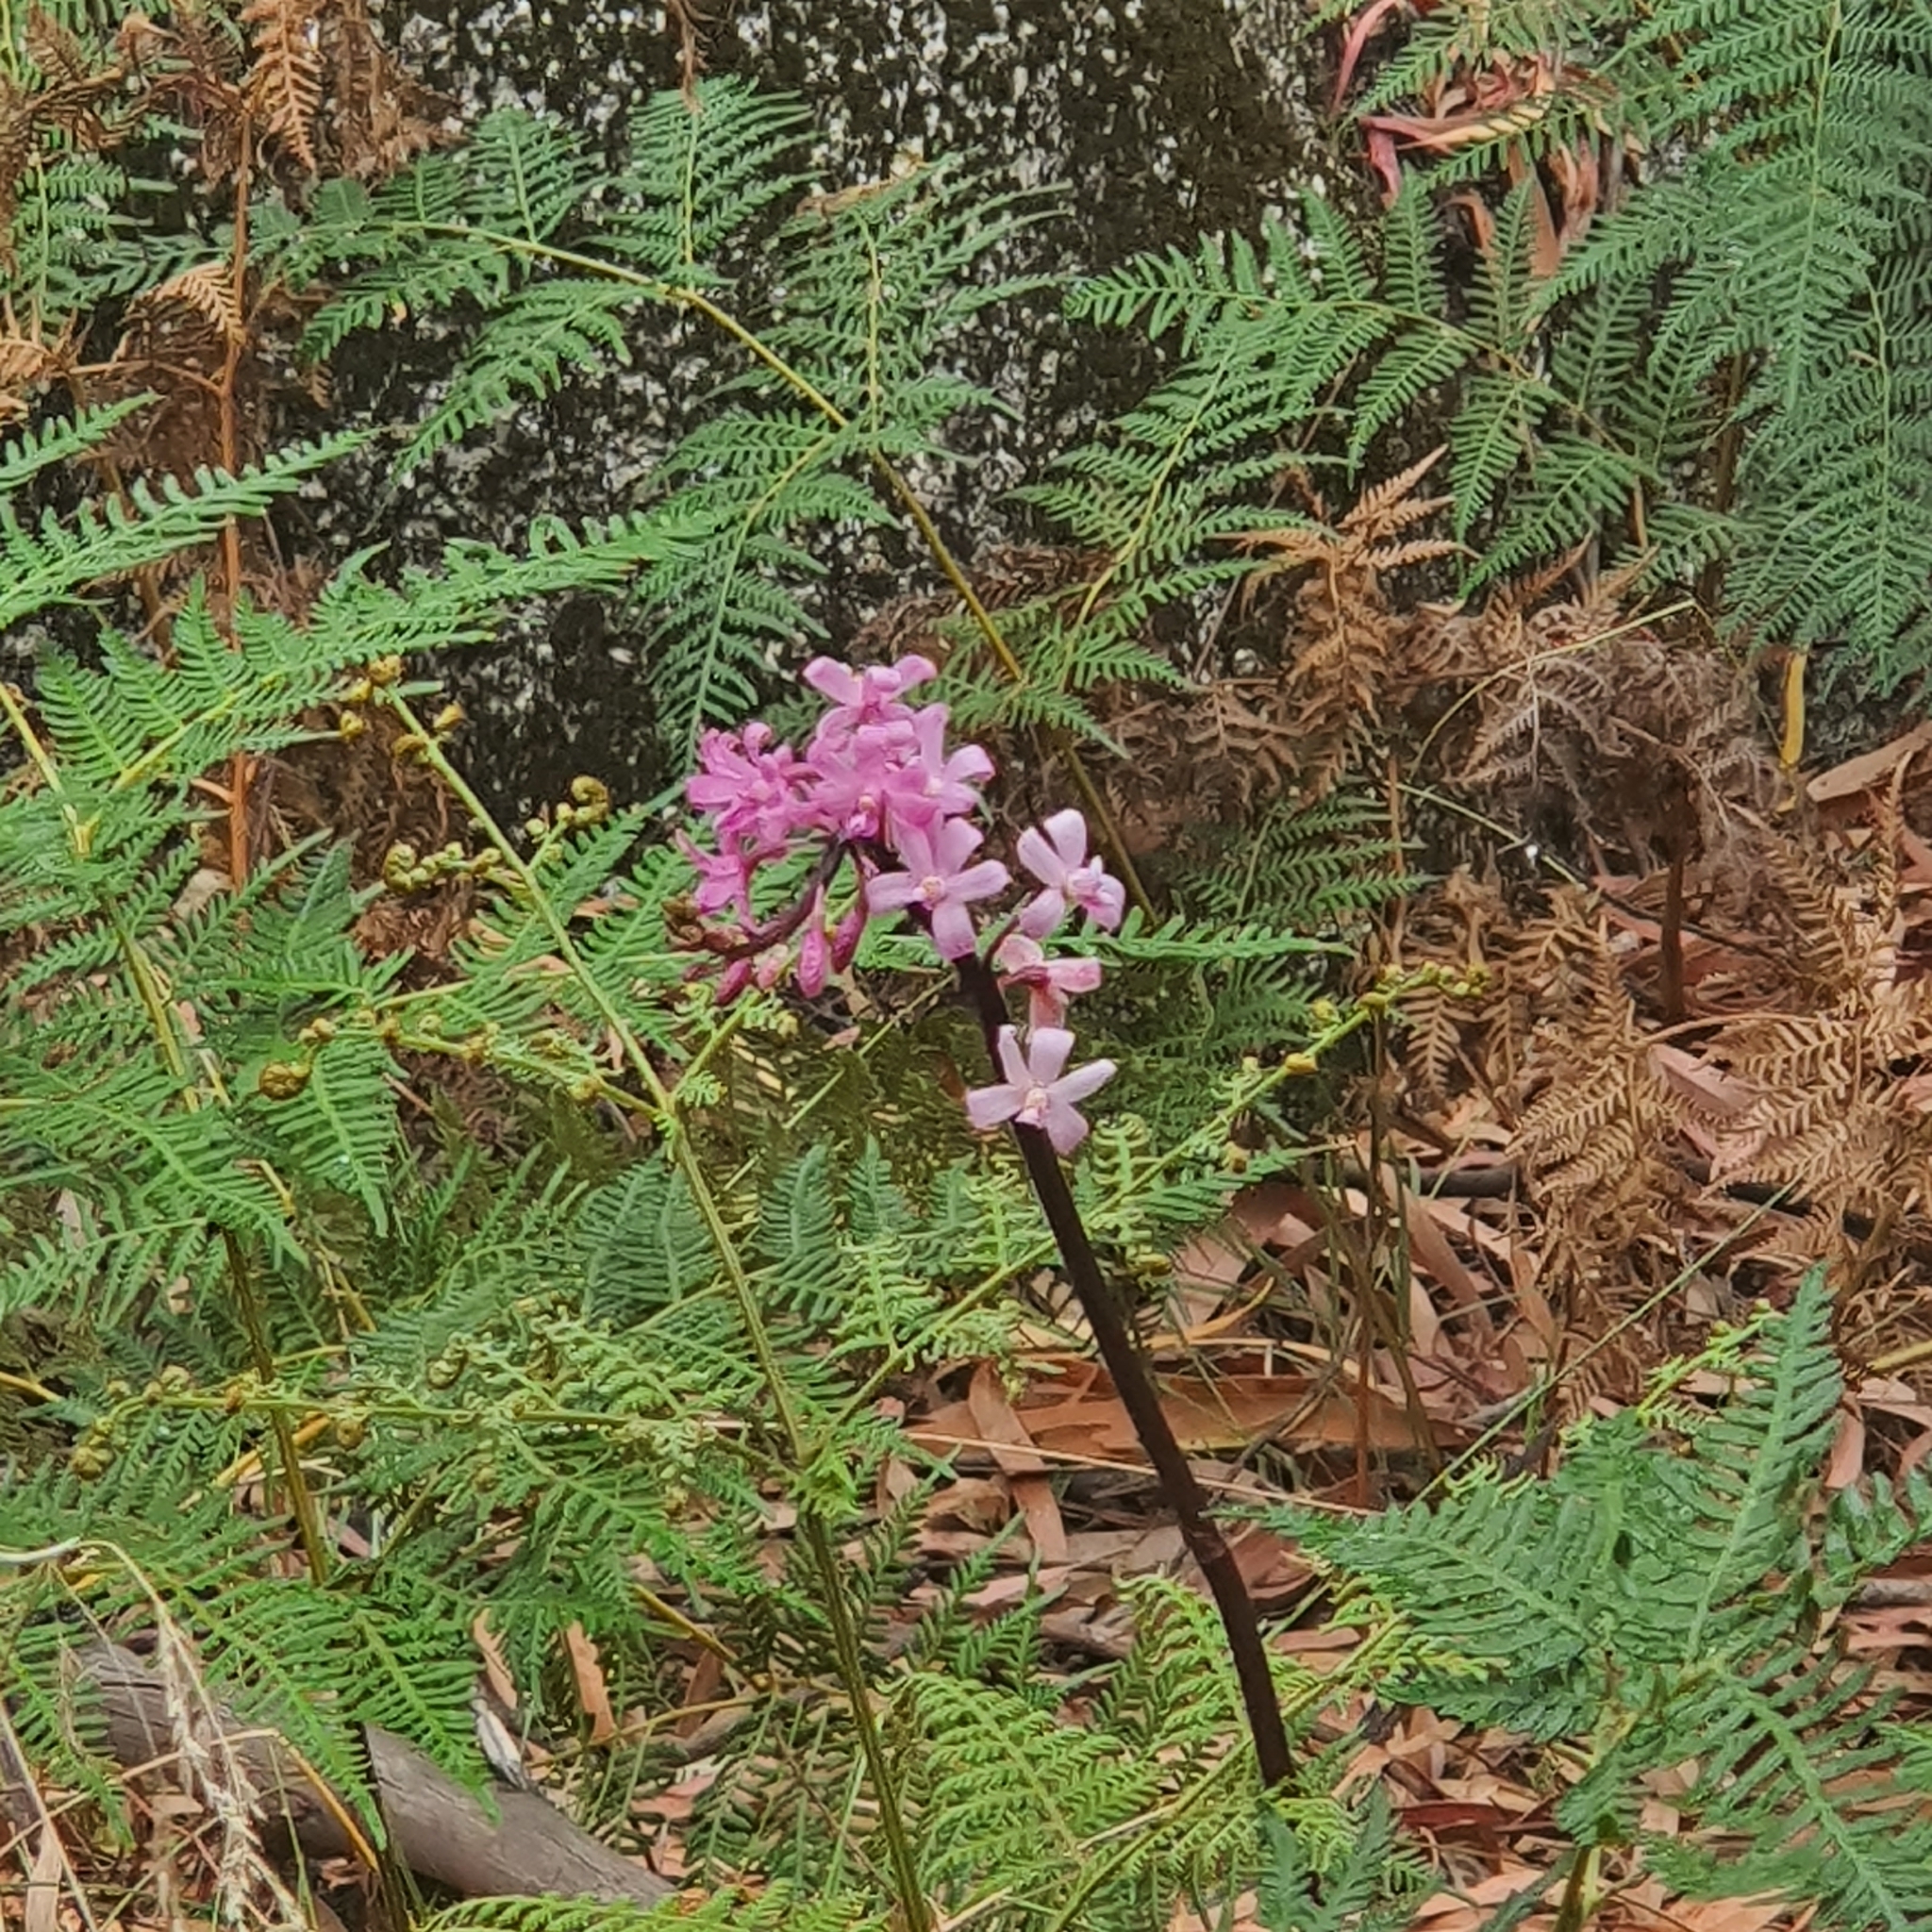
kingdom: Plantae
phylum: Tracheophyta
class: Liliopsida
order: Asparagales
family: Orchidaceae
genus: Dipodium
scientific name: Dipodium roseum
